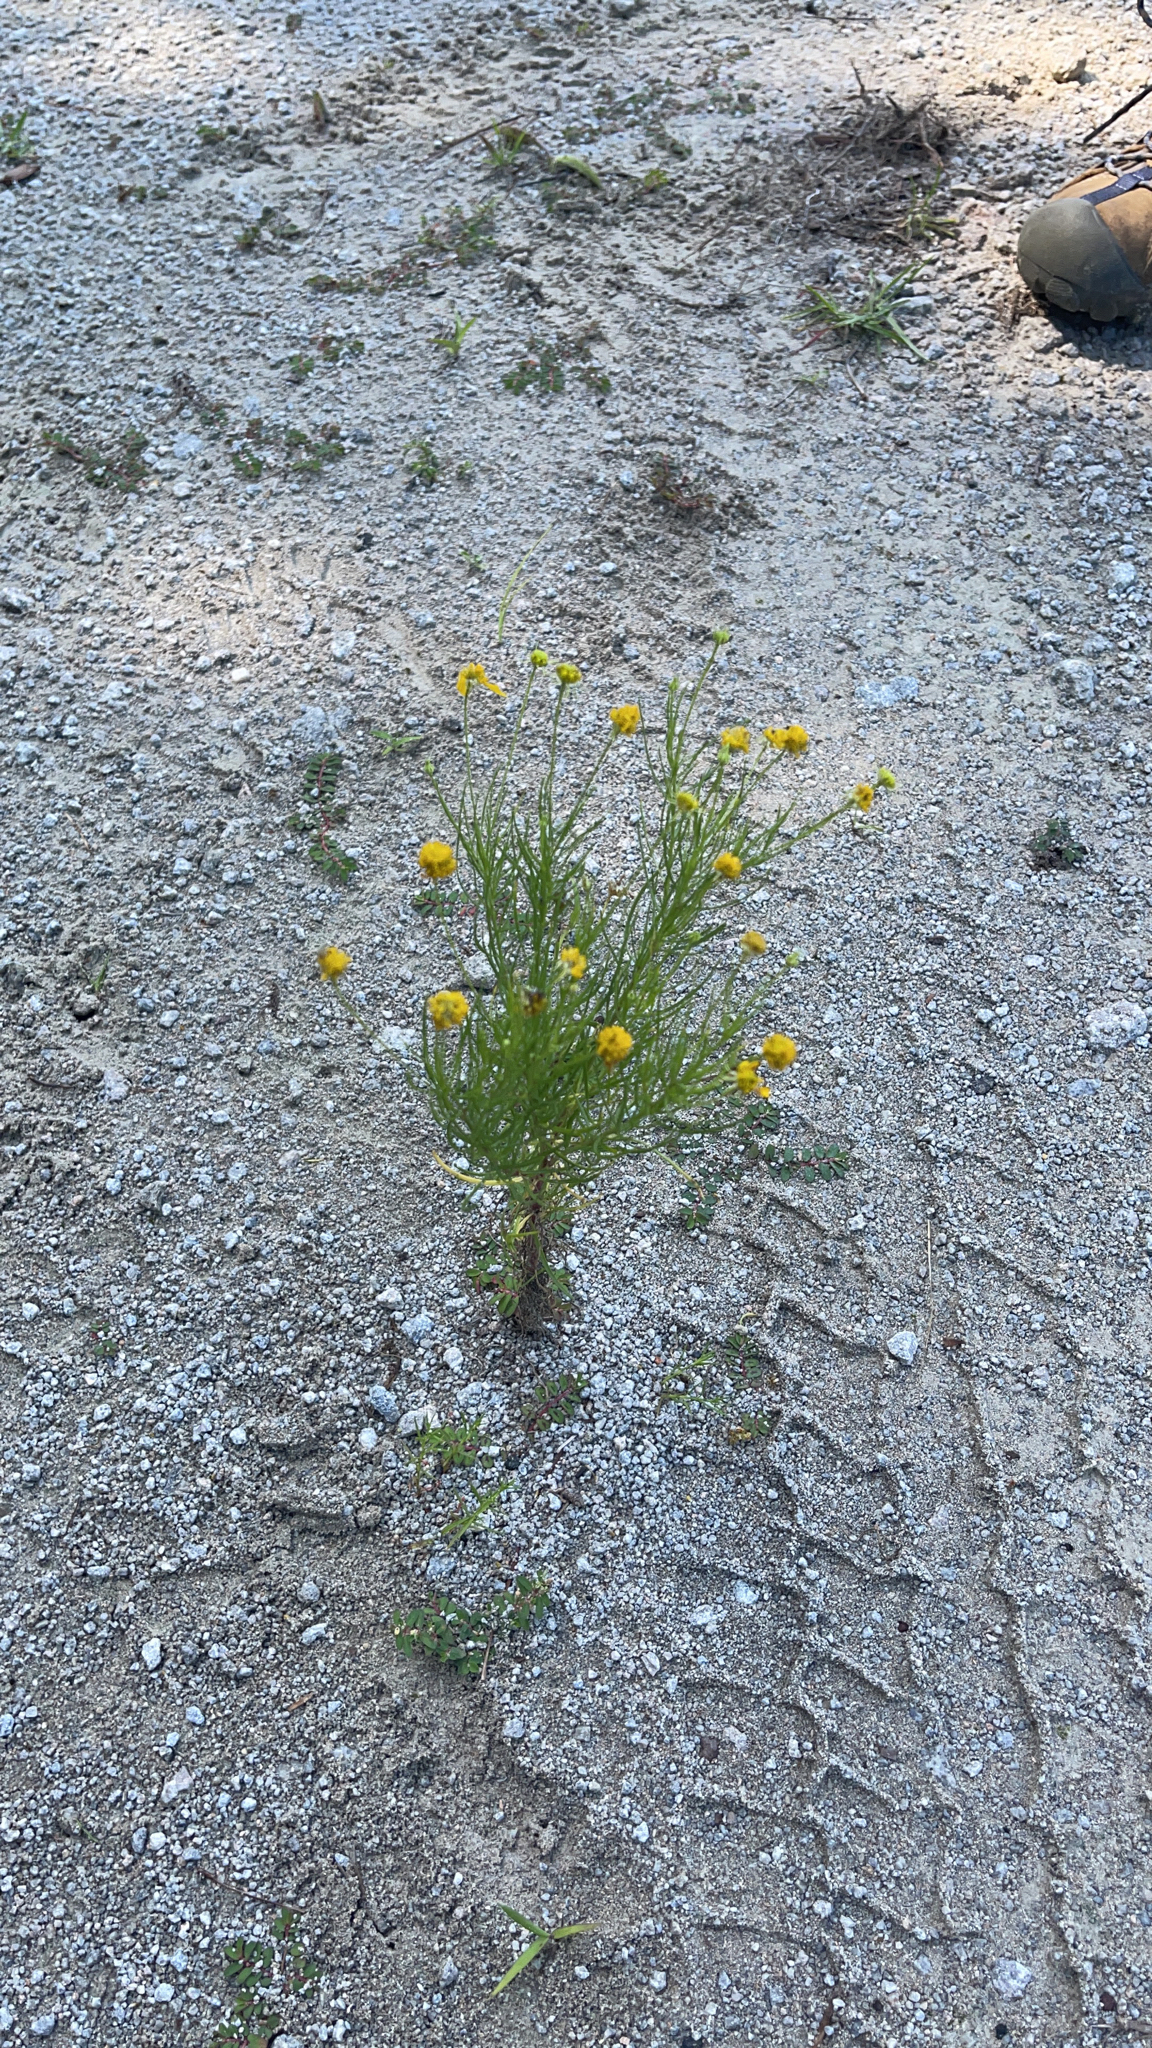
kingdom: Plantae
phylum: Tracheophyta
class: Magnoliopsida
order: Asterales
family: Asteraceae
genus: Helenium
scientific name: Helenium amarum
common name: Bitter sneezeweed
